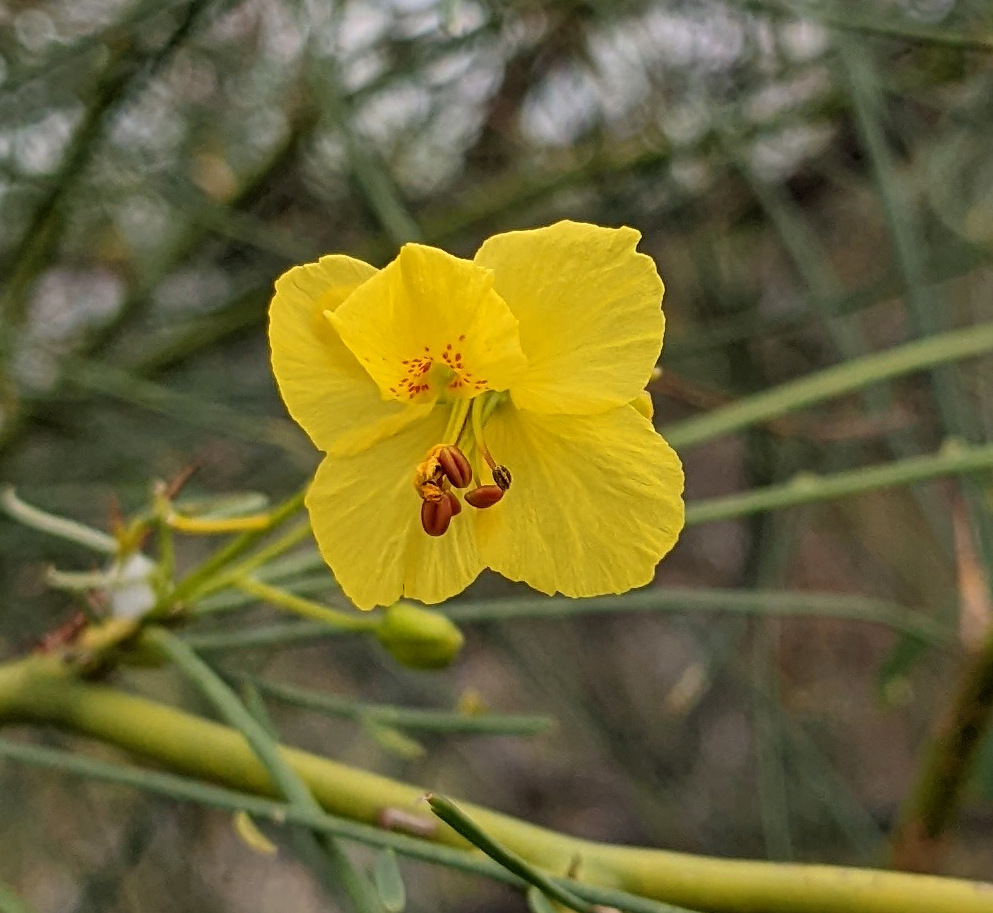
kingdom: Plantae
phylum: Tracheophyta
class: Magnoliopsida
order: Fabales
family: Fabaceae
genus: Parkinsonia
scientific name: Parkinsonia aculeata
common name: Jerusalem thorn
